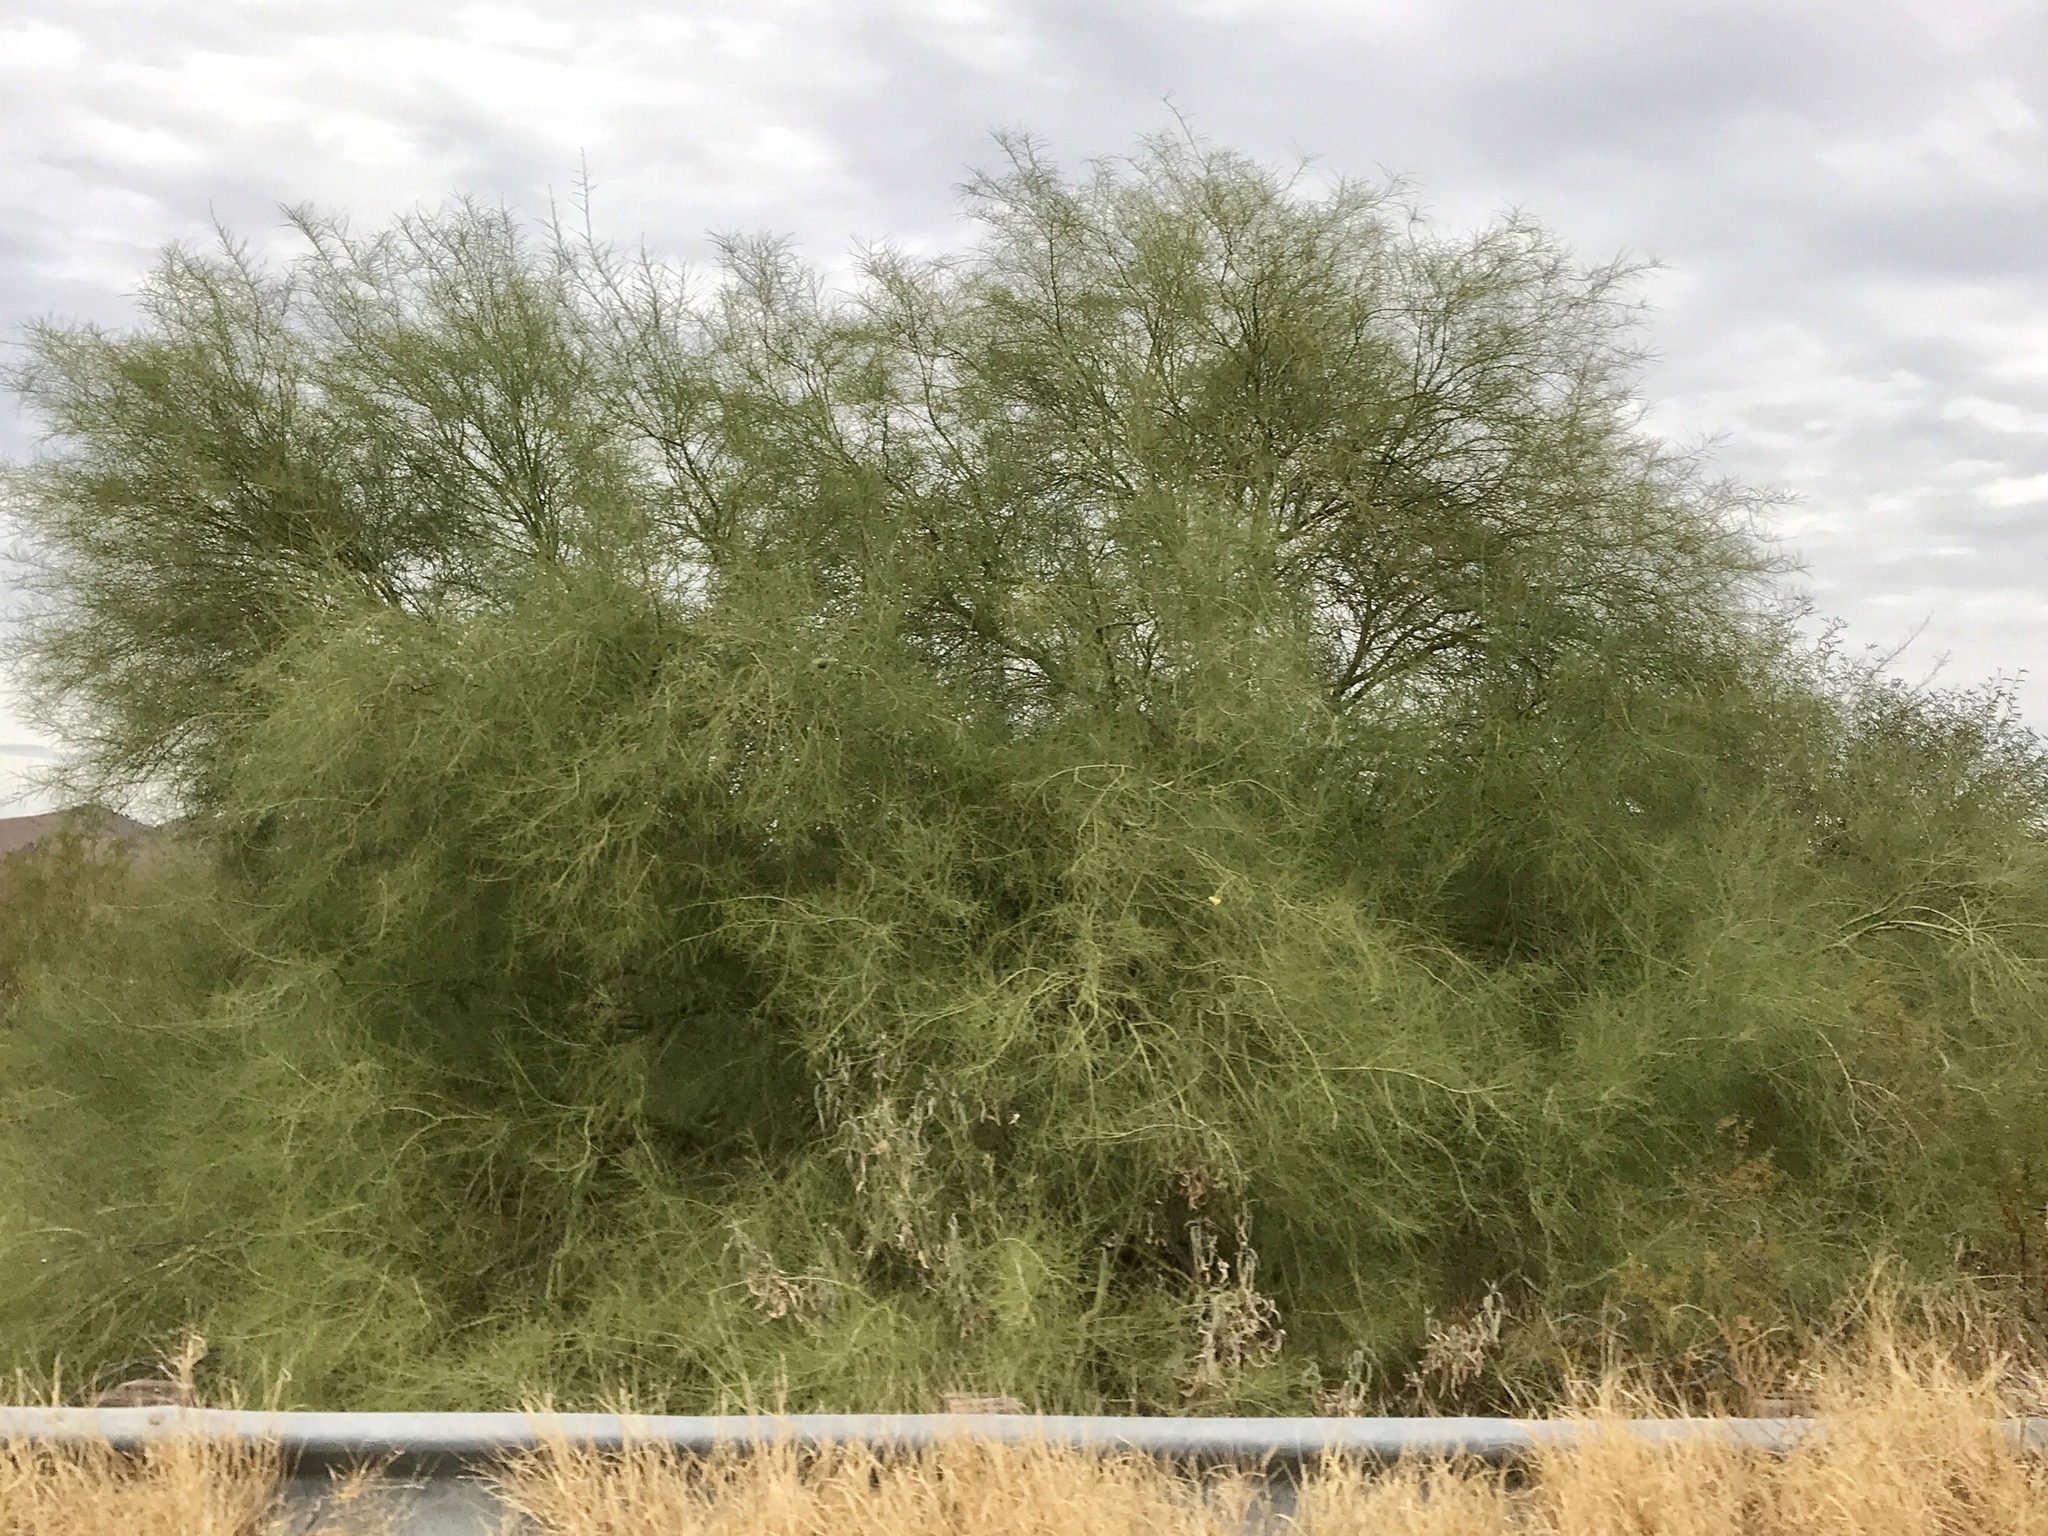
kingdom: Plantae
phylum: Tracheophyta
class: Magnoliopsida
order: Fabales
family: Fabaceae
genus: Parkinsonia
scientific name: Parkinsonia florida
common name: Blue paloverde
